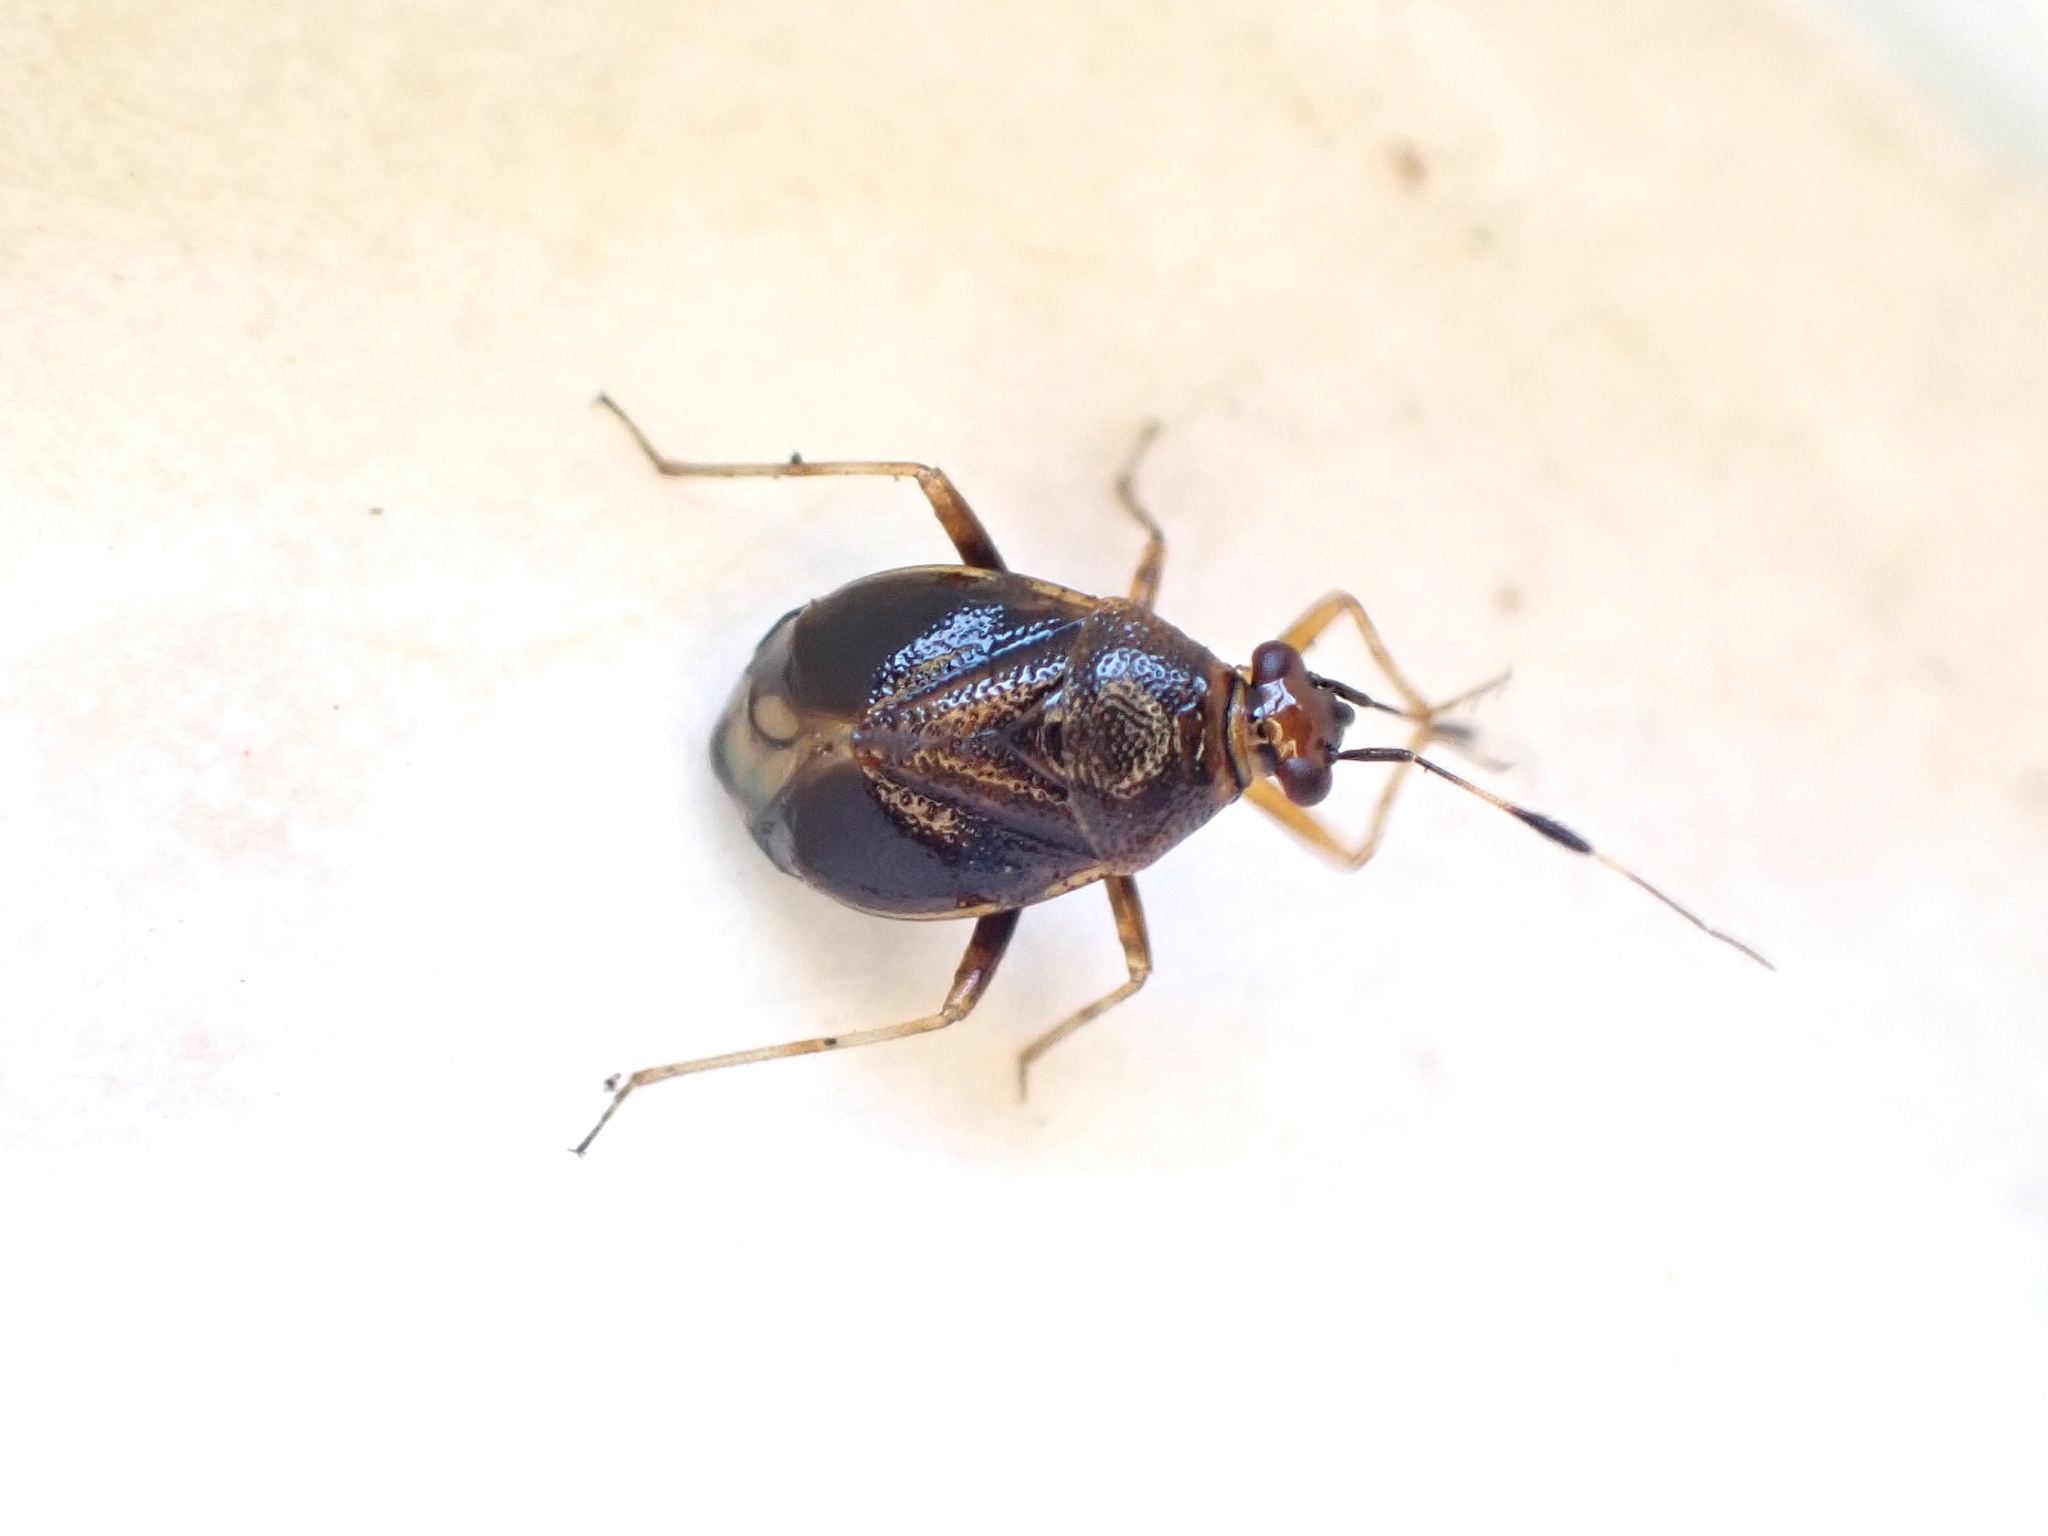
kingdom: Animalia
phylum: Arthropoda
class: Insecta
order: Hemiptera
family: Miridae
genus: Deraeocoris
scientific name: Deraeocoris maoricus
